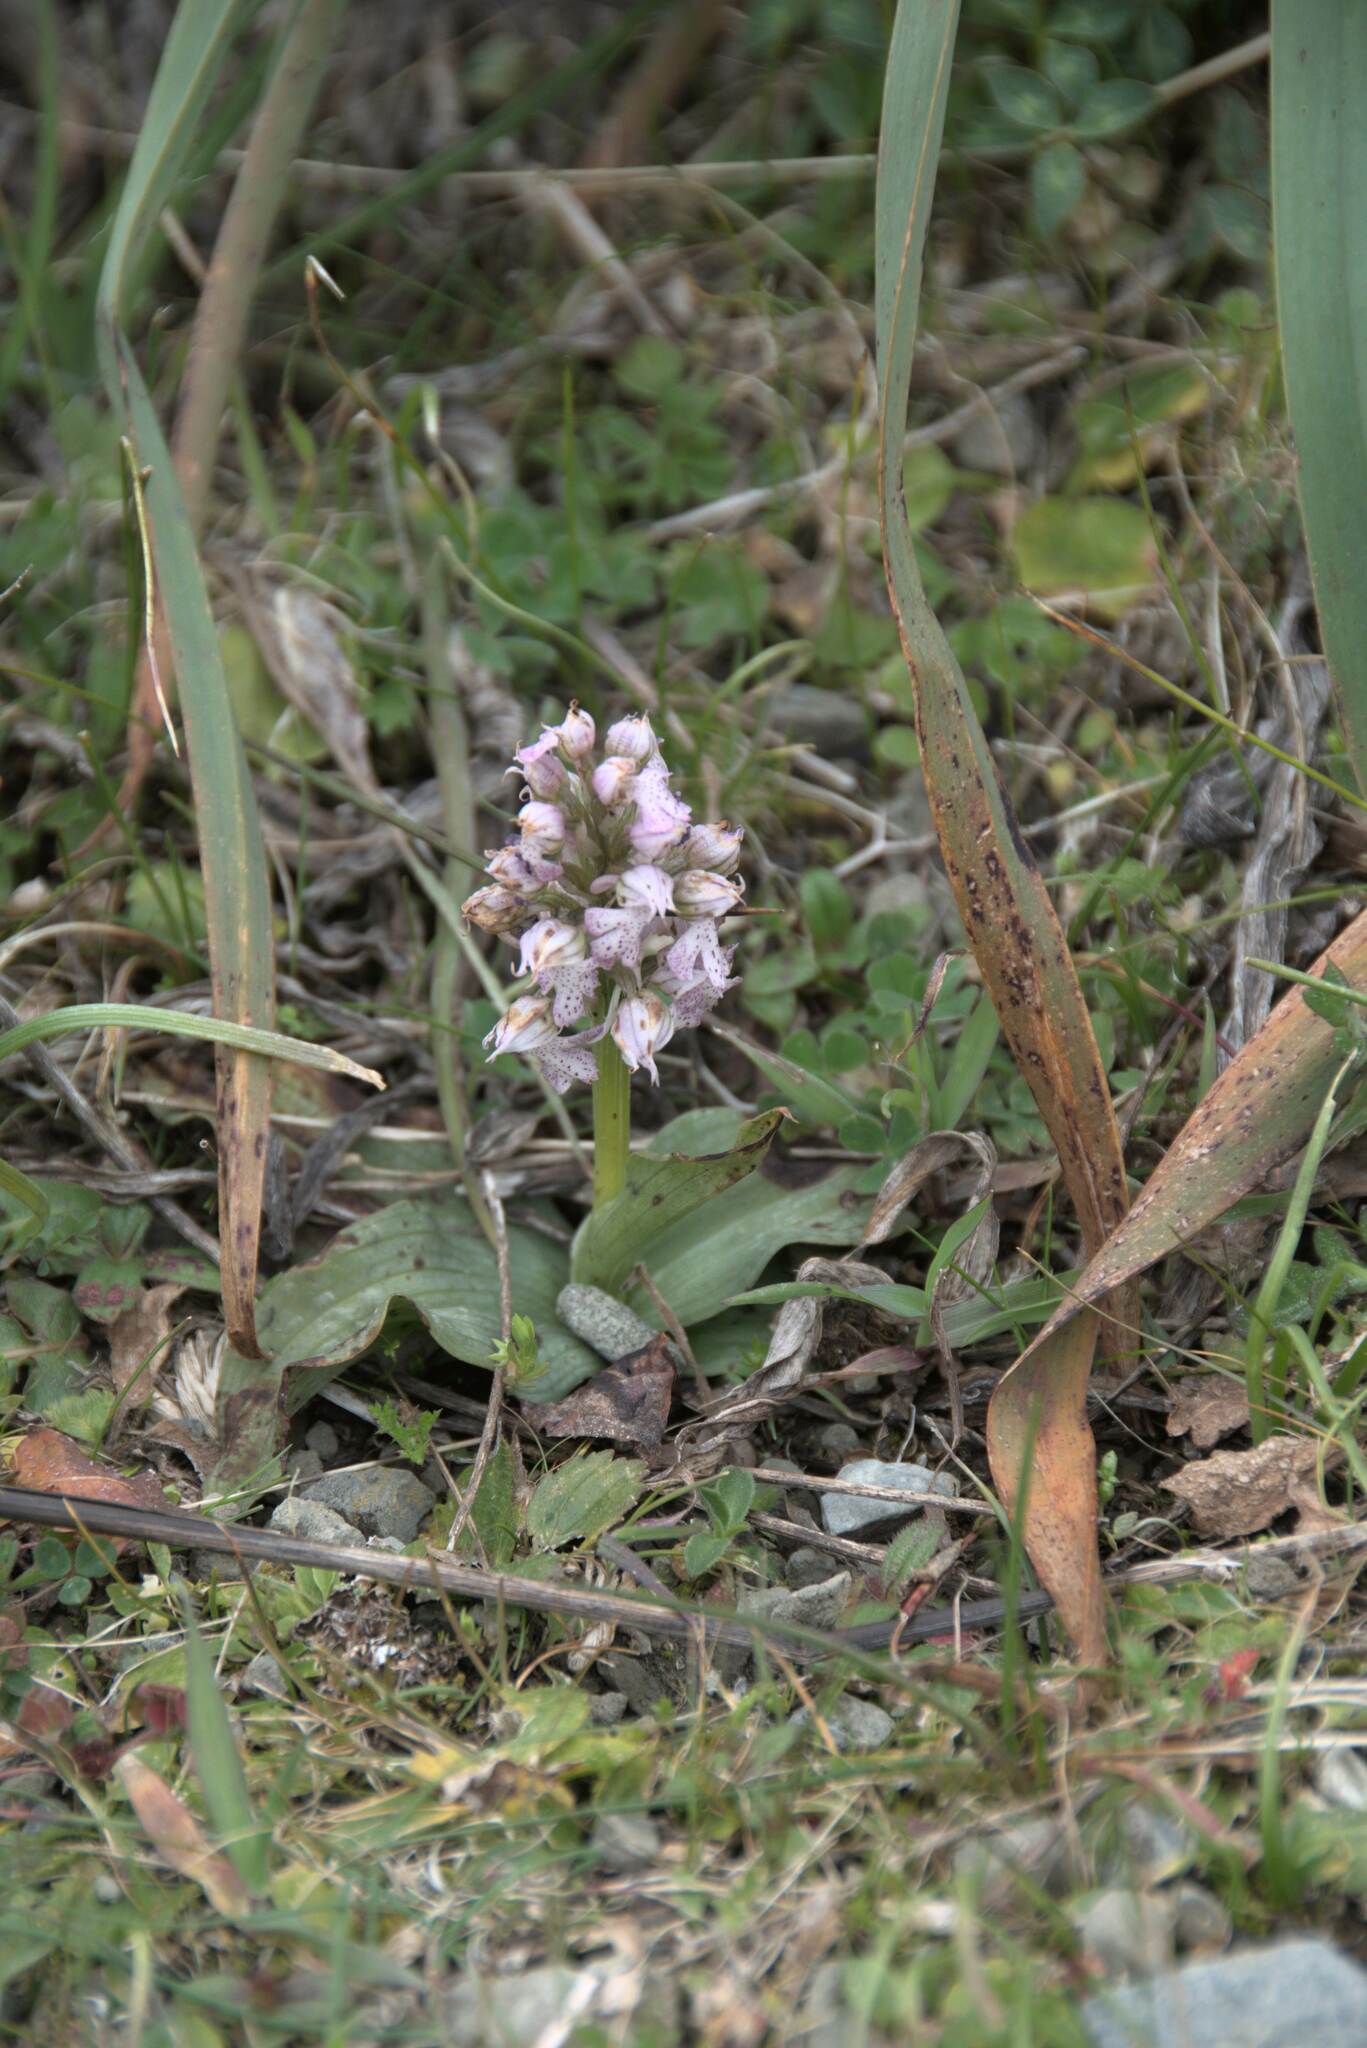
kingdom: Plantae
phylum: Tracheophyta
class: Liliopsida
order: Asparagales
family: Orchidaceae
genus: Neotinea
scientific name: Neotinea lactea
